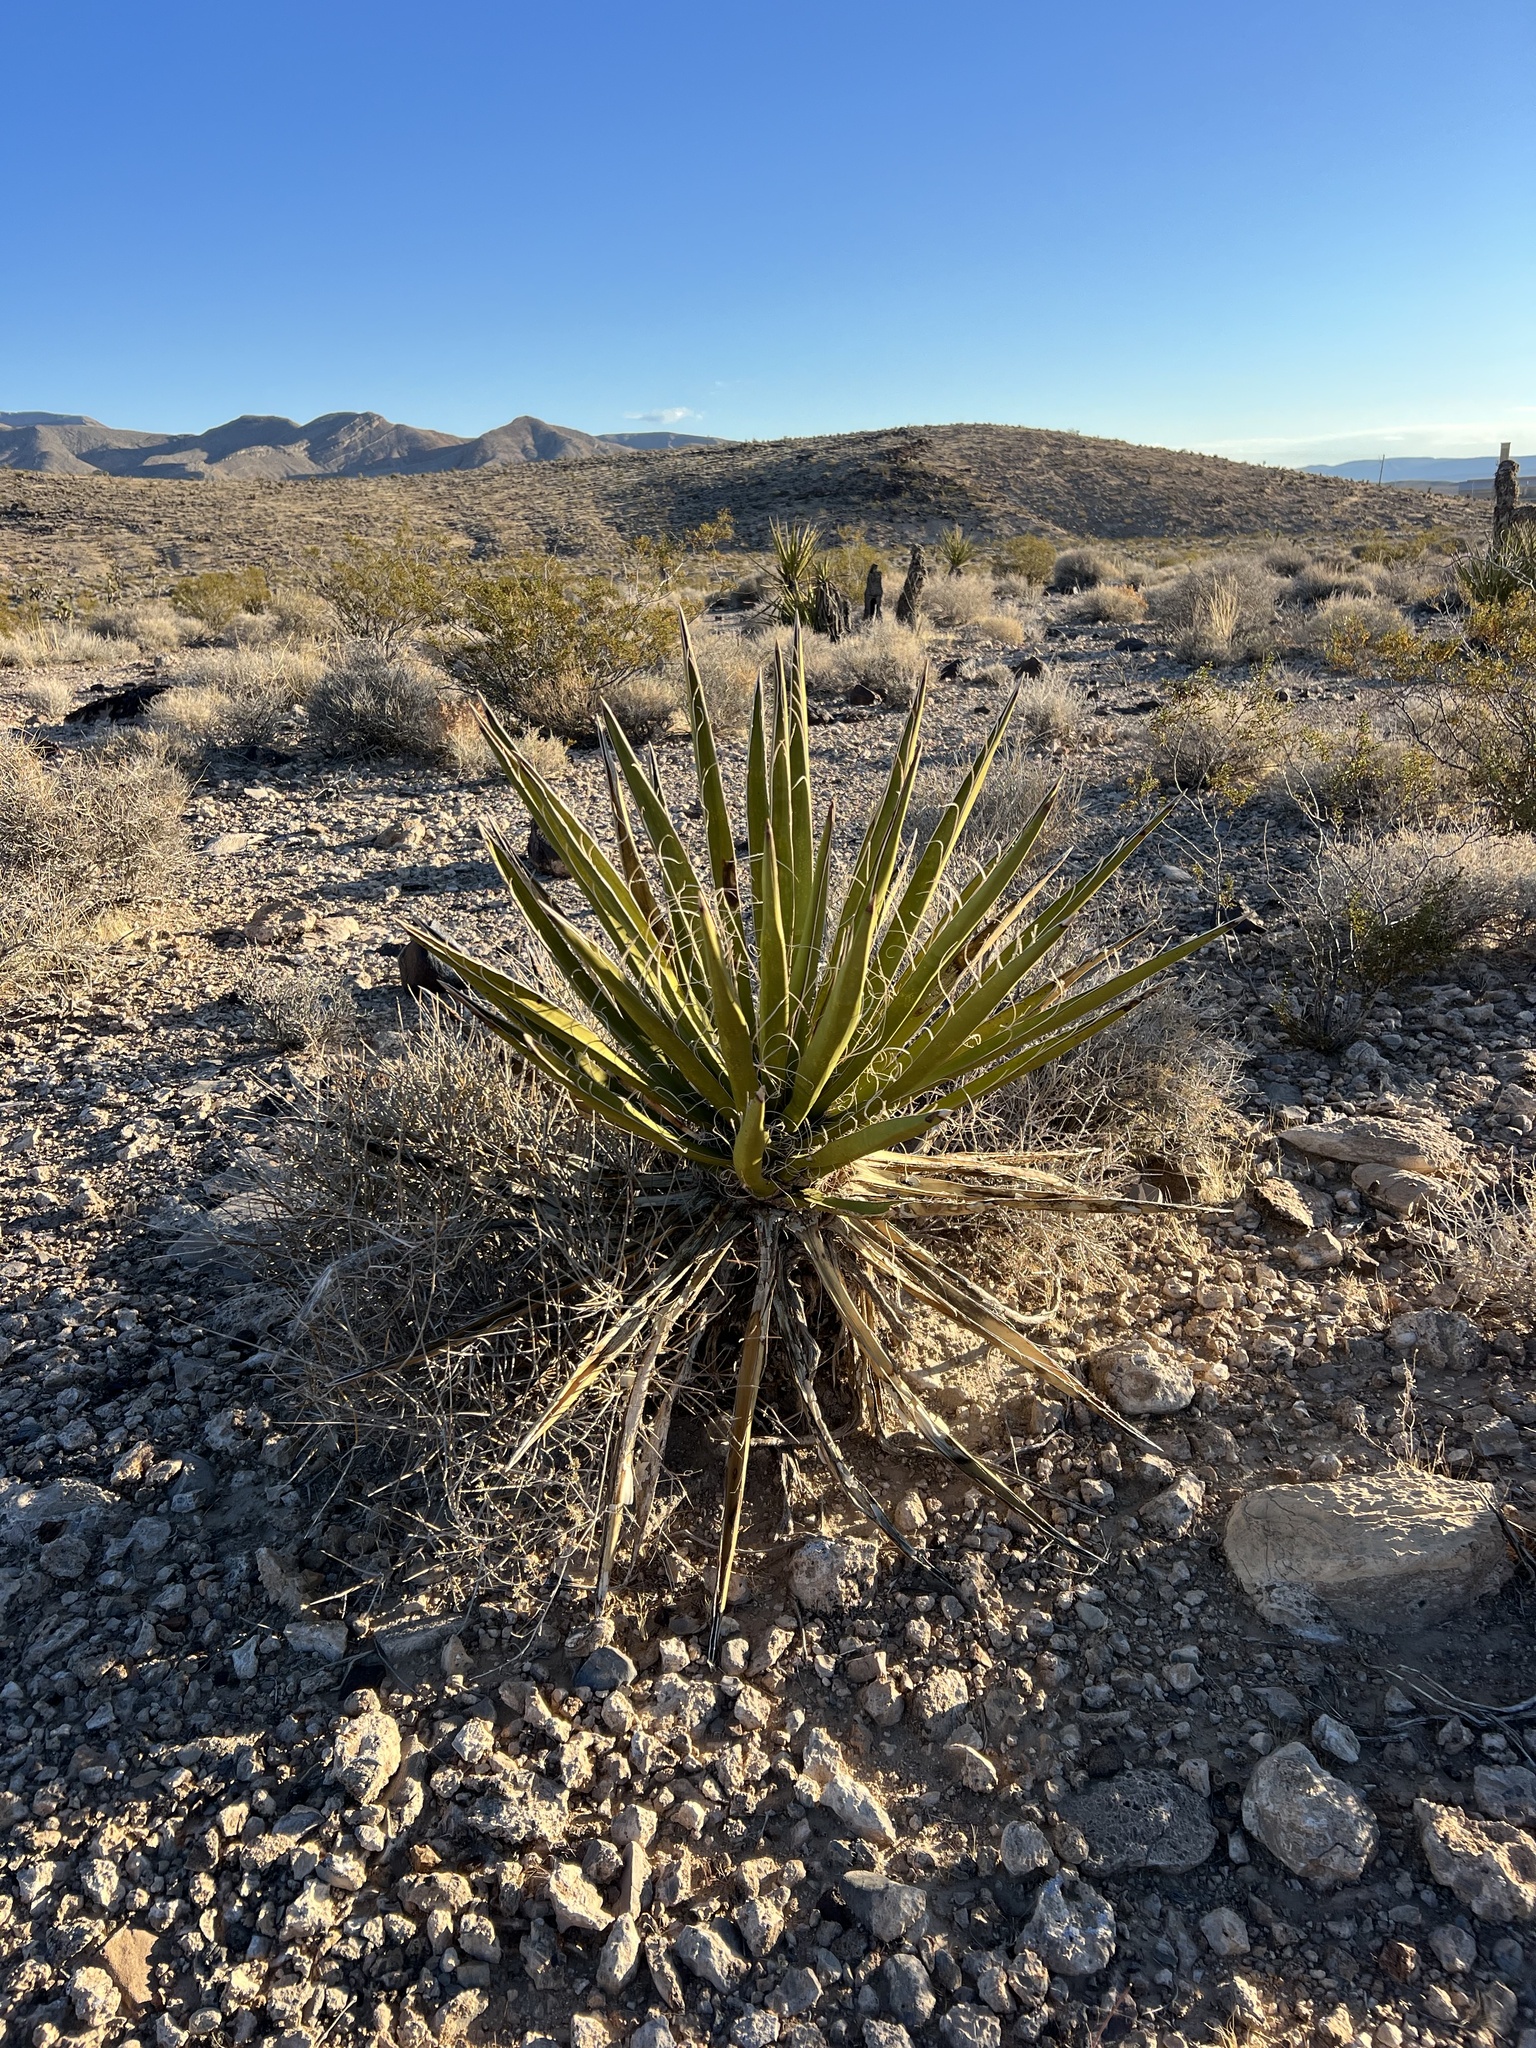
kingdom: Plantae
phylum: Tracheophyta
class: Liliopsida
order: Asparagales
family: Asparagaceae
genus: Yucca
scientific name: Yucca schidigera
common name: Mojave yucca
